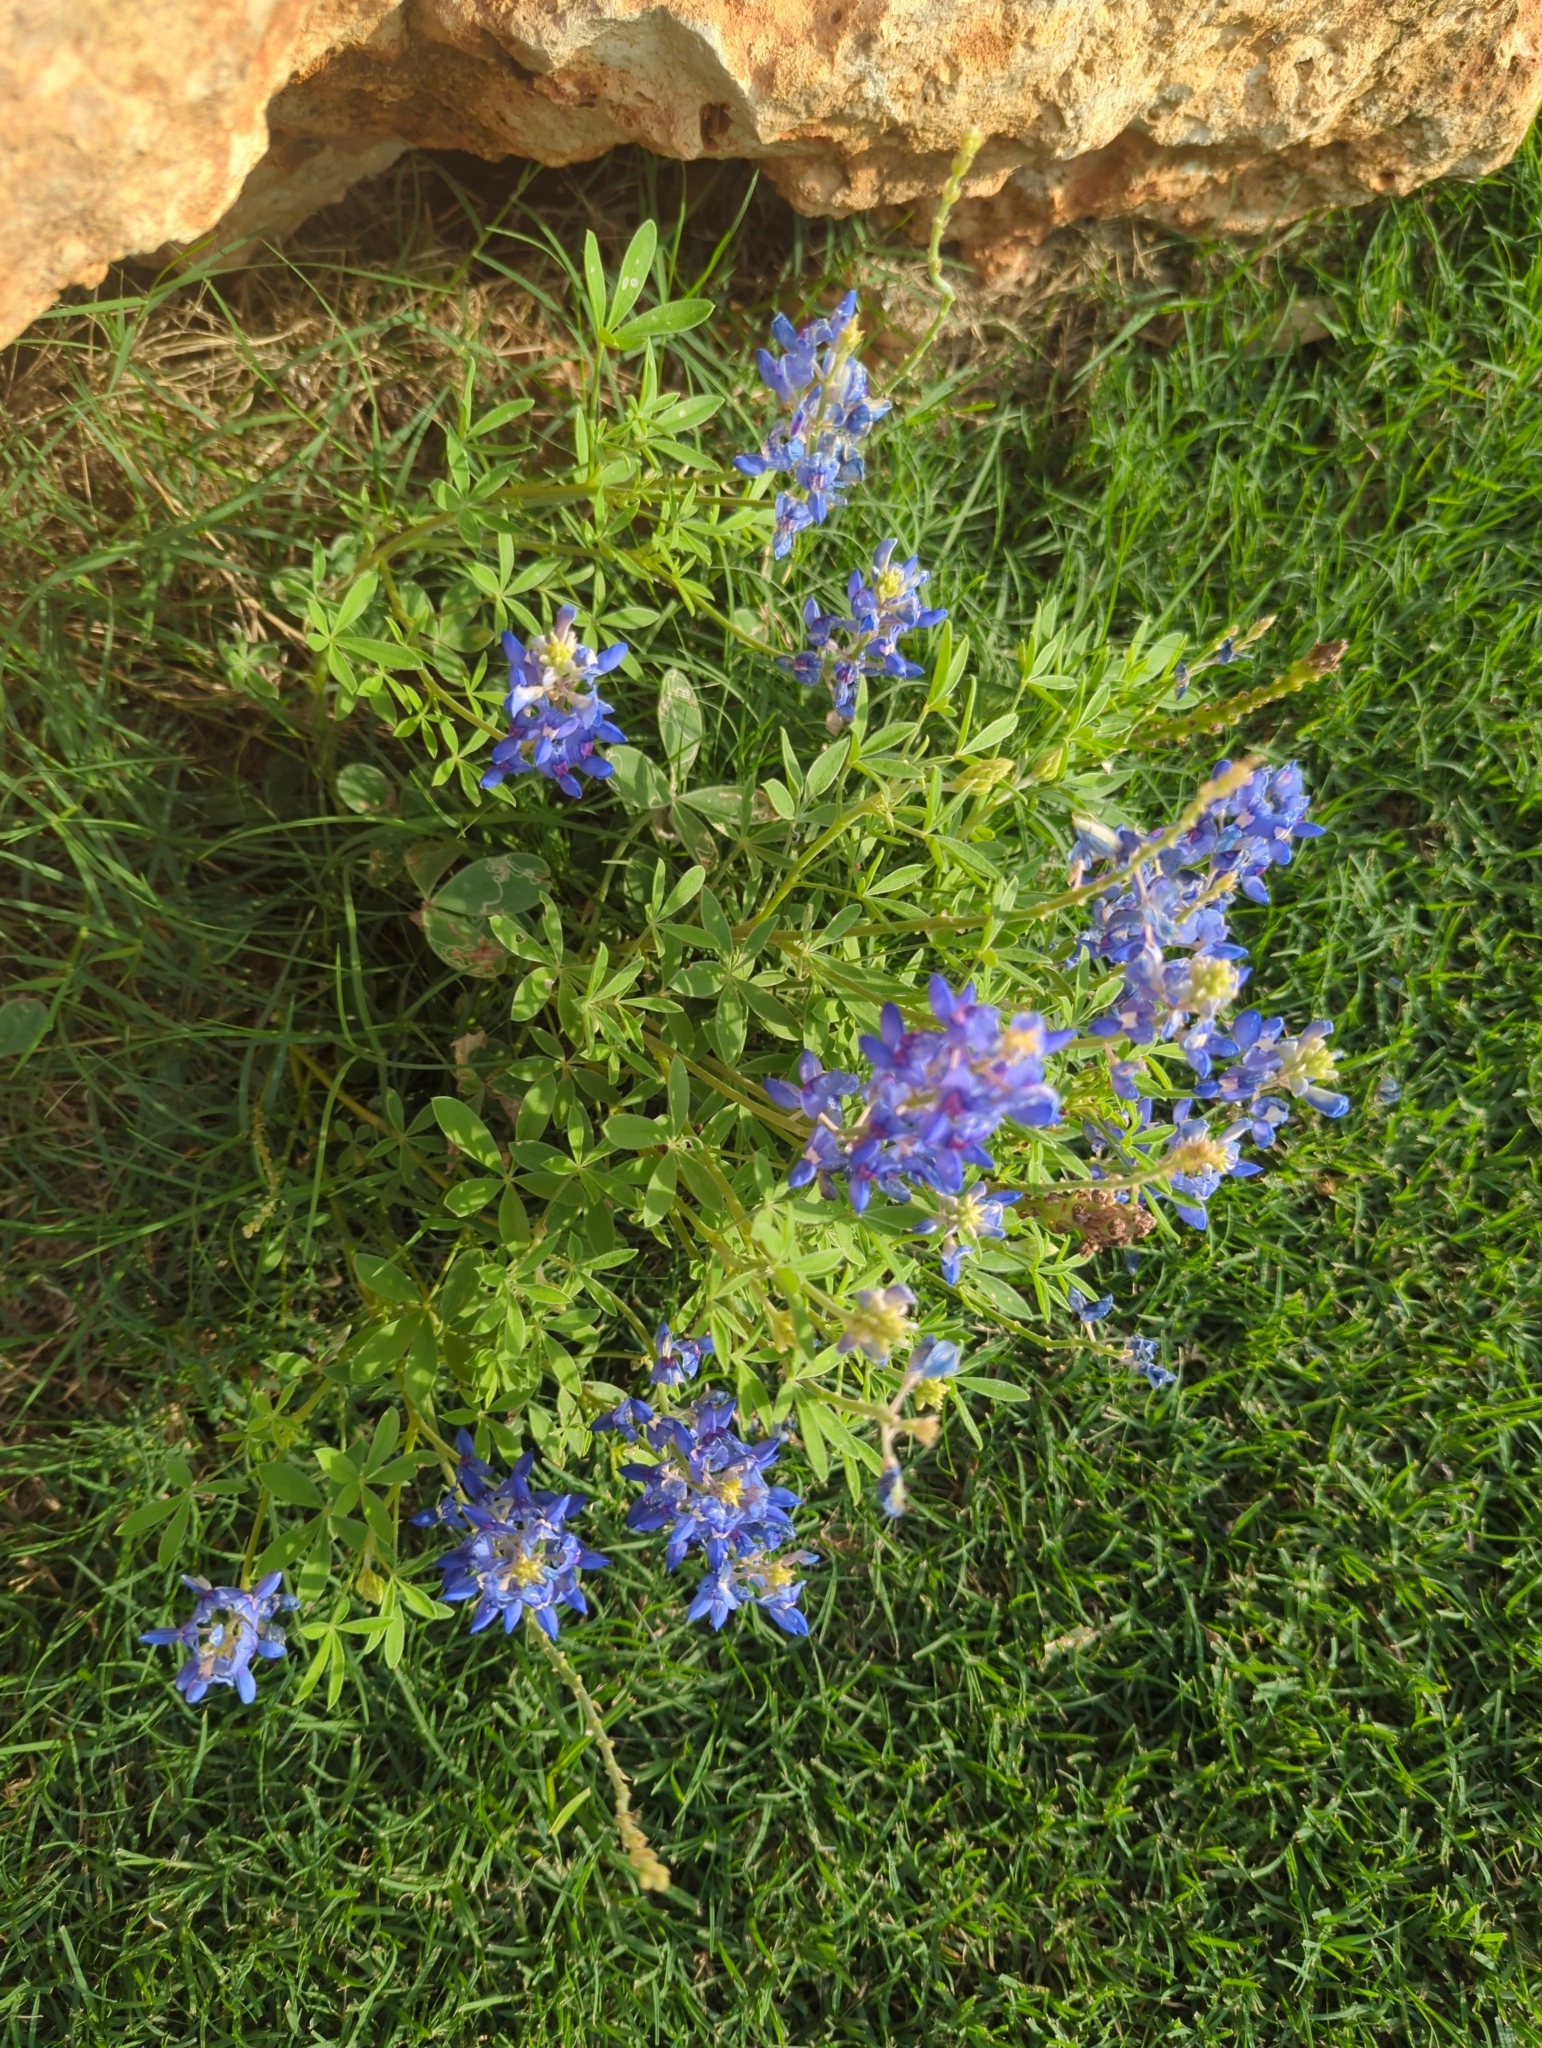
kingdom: Plantae
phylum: Tracheophyta
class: Magnoliopsida
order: Fabales
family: Fabaceae
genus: Lupinus
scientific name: Lupinus texensis
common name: Texas bluebonnet
